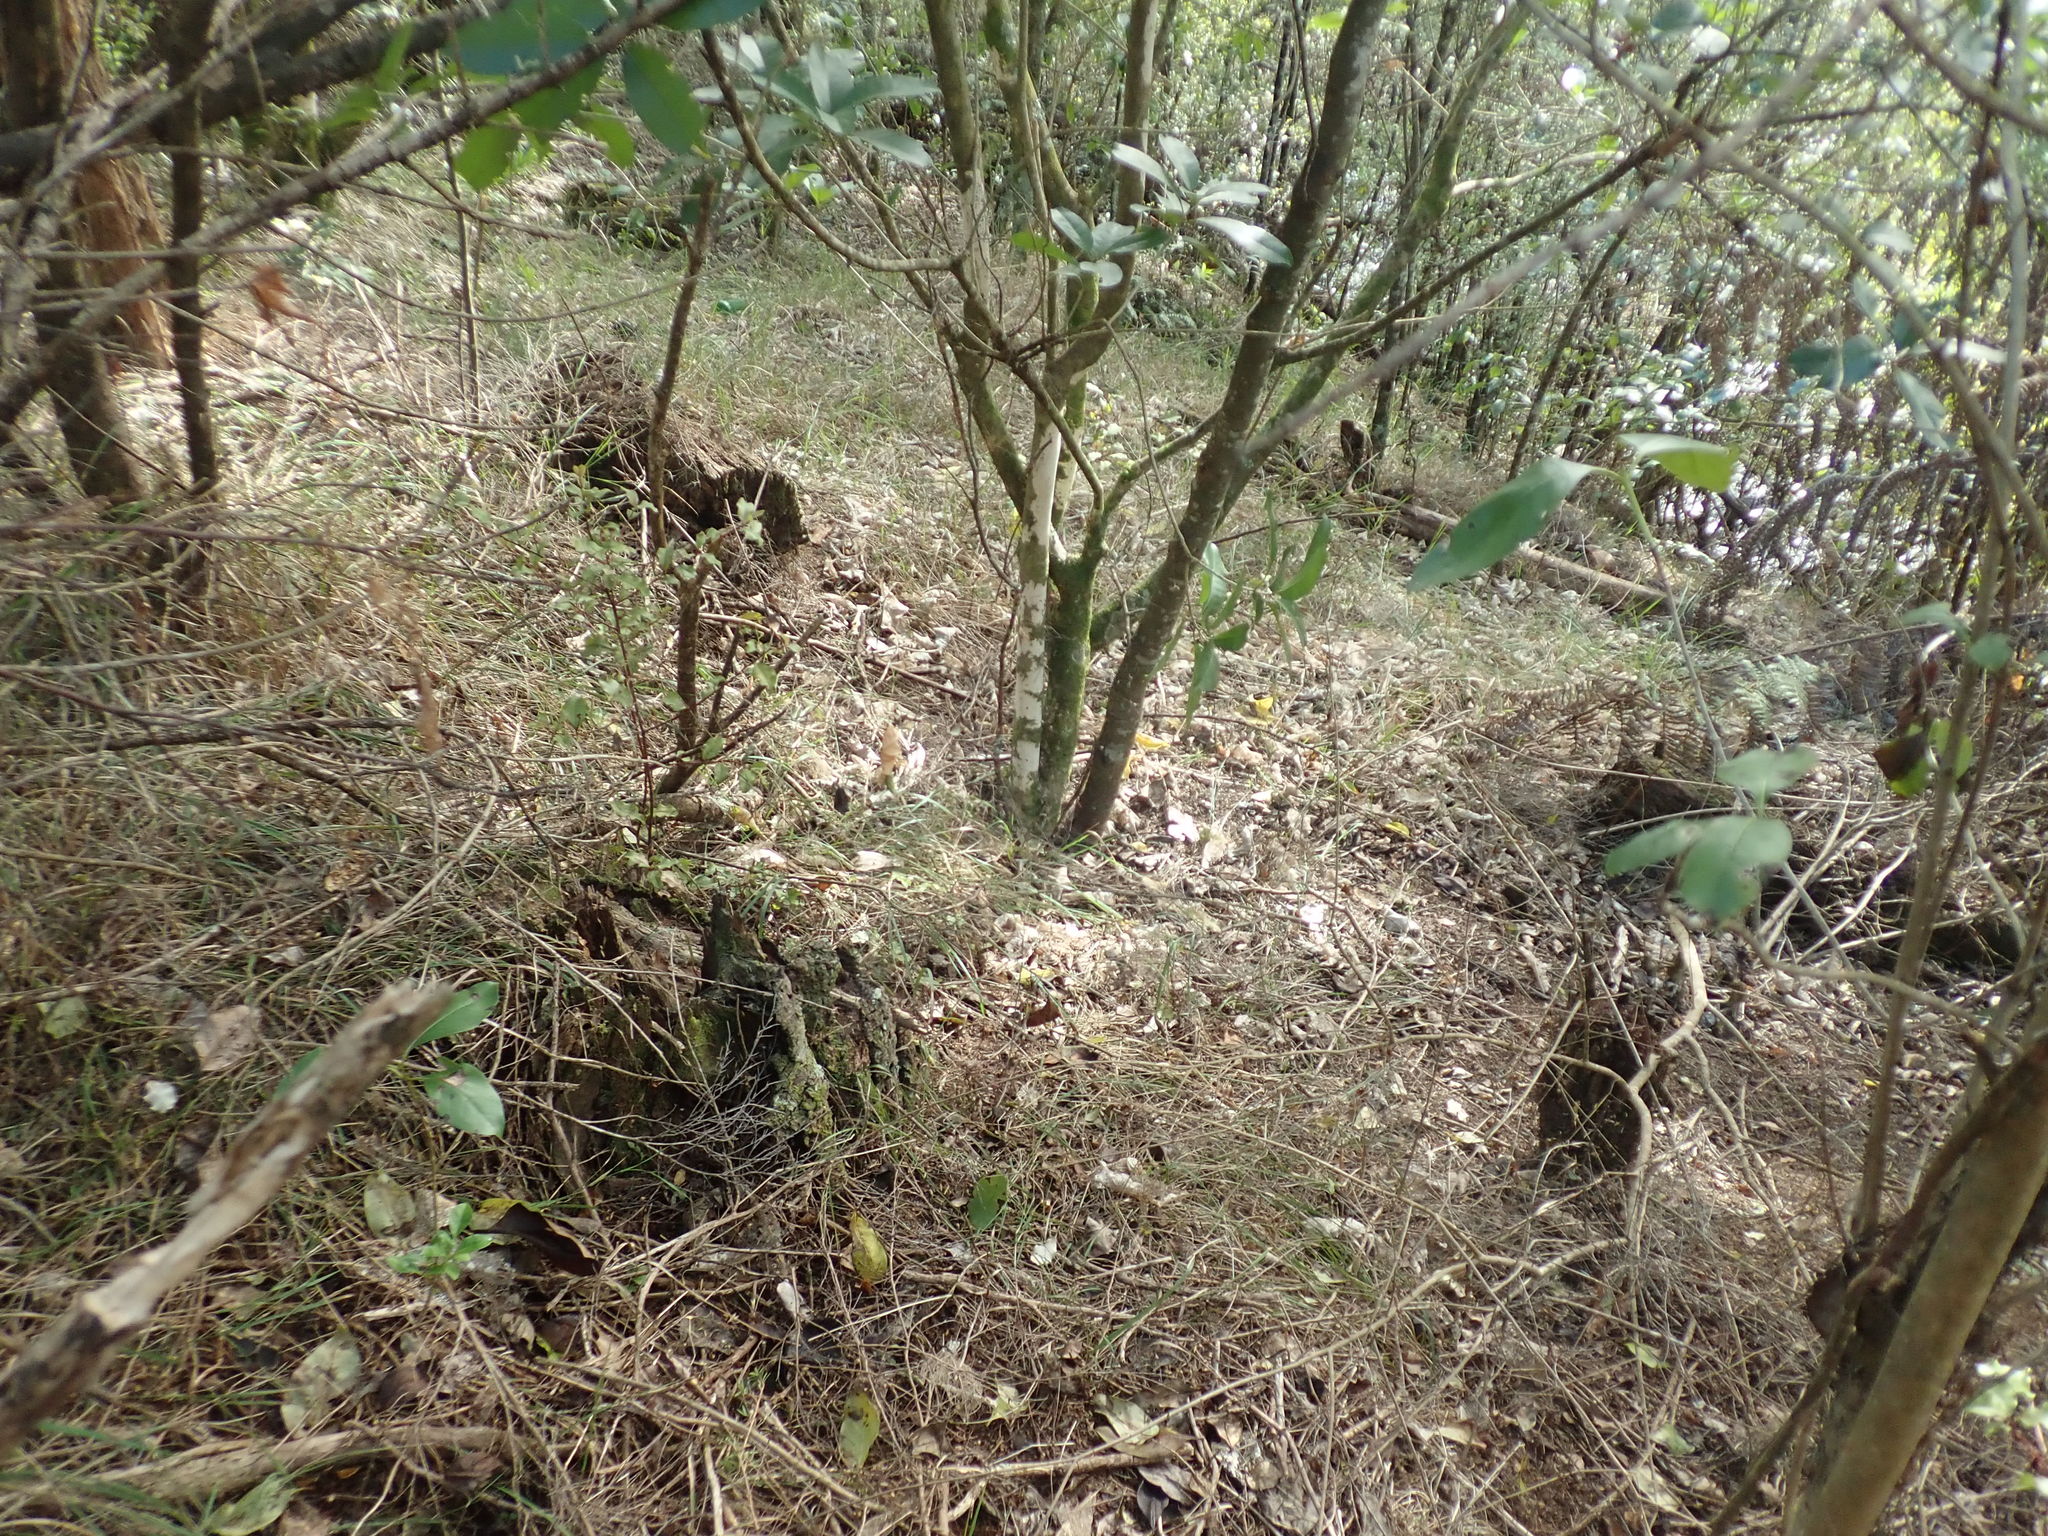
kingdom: Plantae
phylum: Tracheophyta
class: Magnoliopsida
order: Malpighiales
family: Violaceae
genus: Melicytus
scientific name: Melicytus ramiflorus
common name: Mahoe
